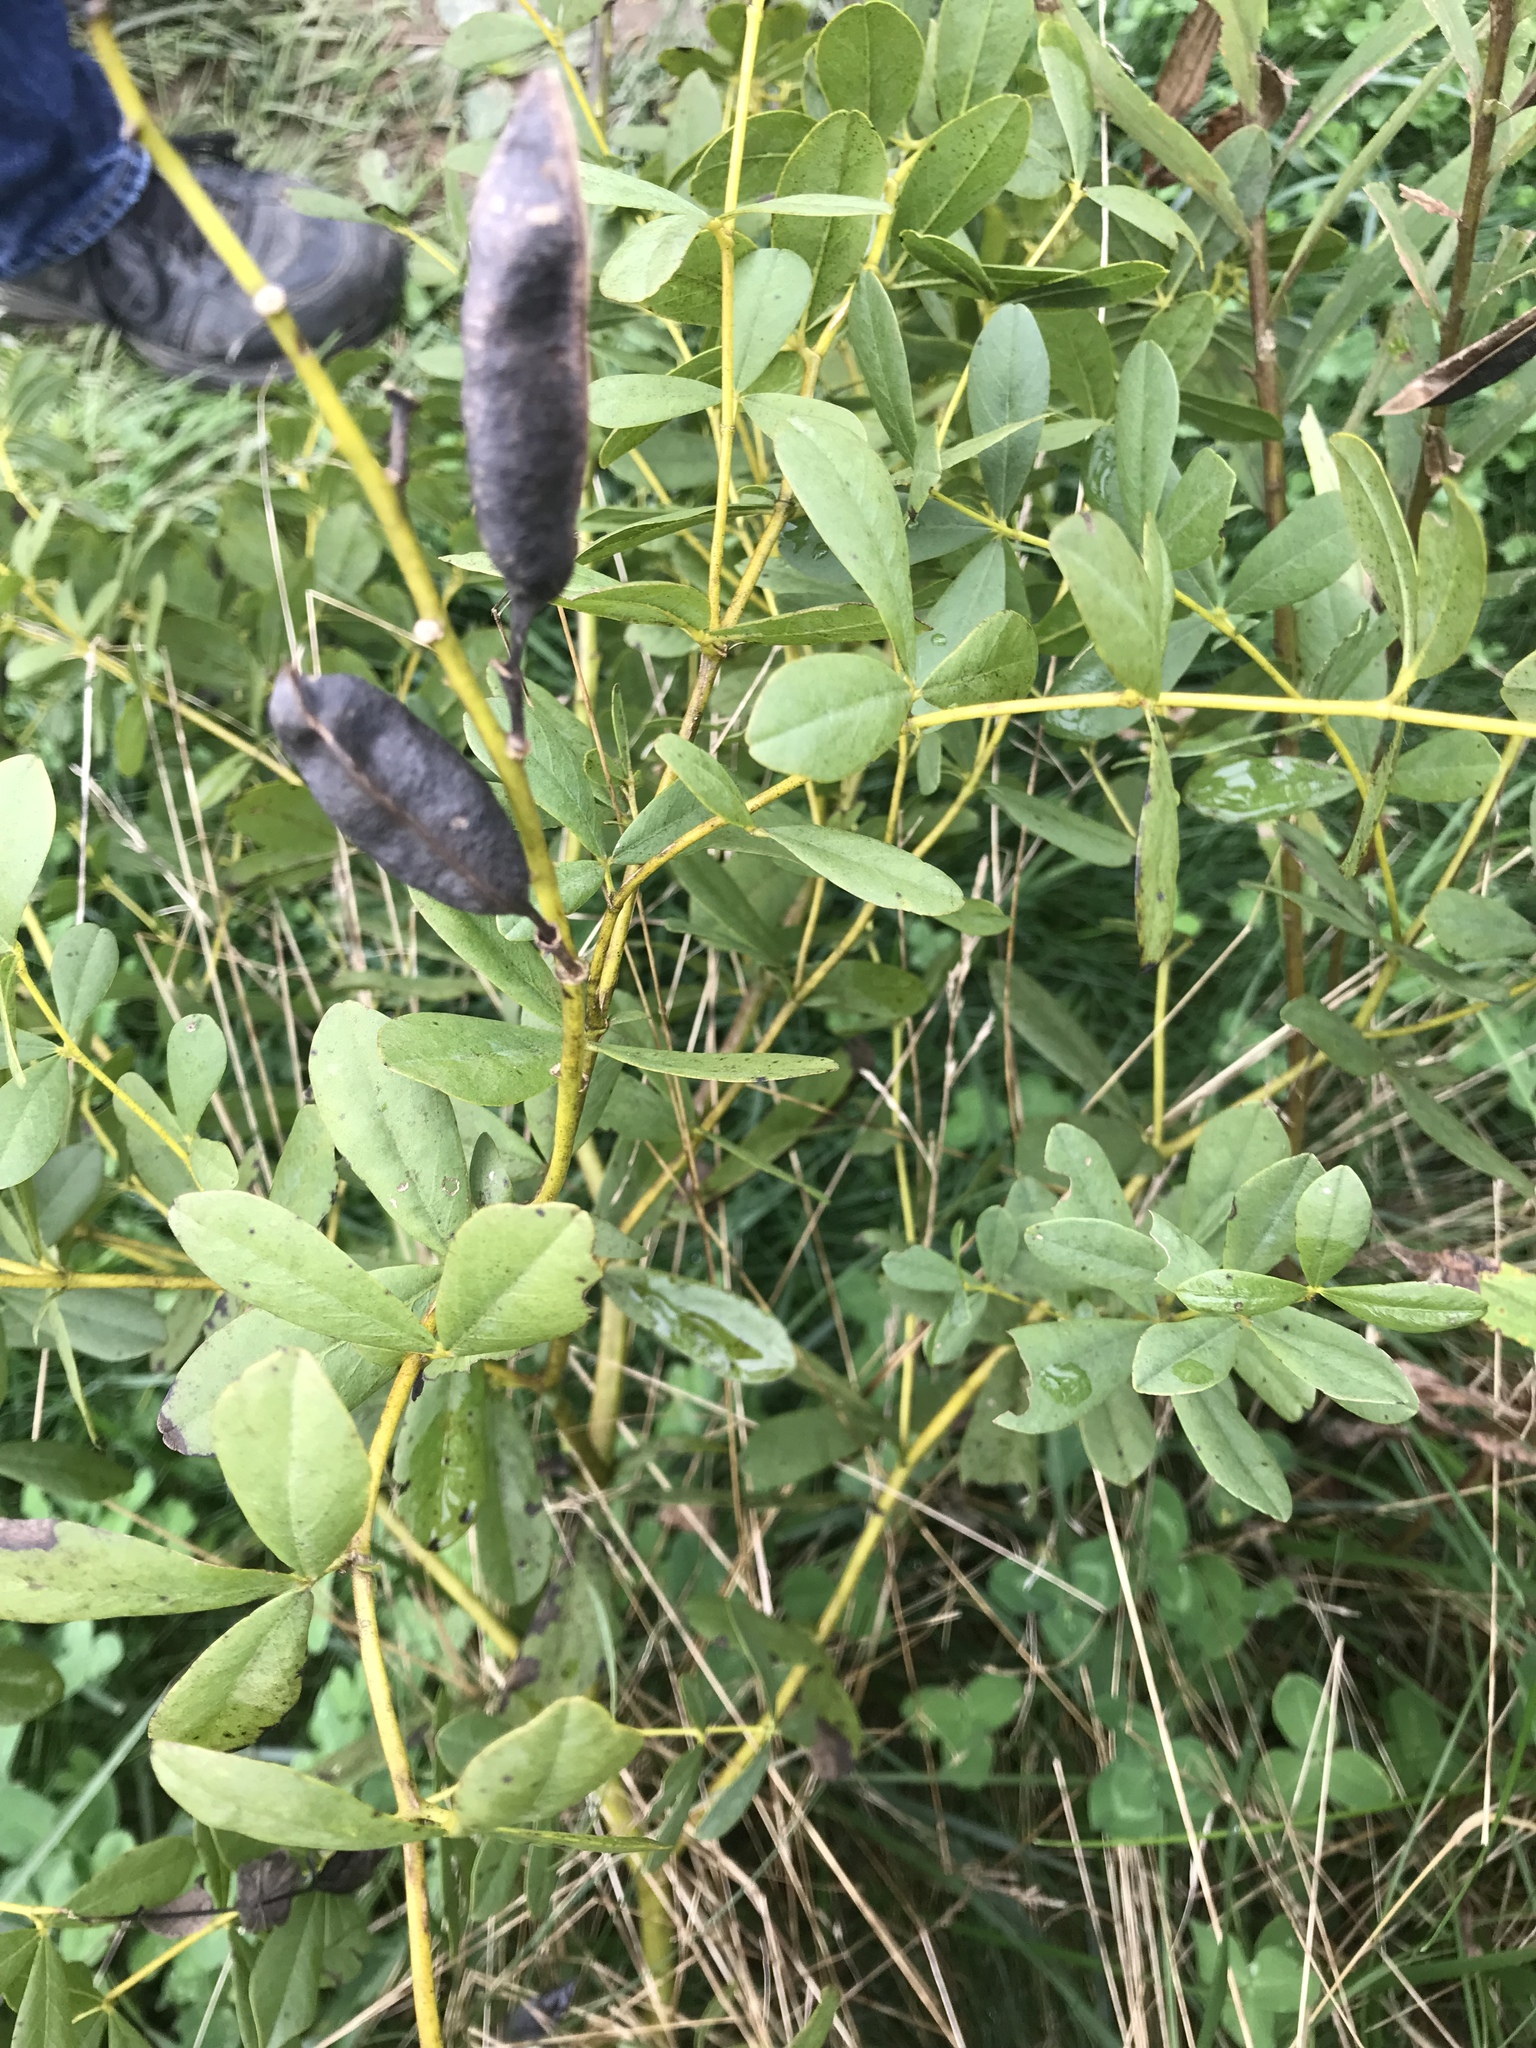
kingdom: Plantae
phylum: Tracheophyta
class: Magnoliopsida
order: Fabales
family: Fabaceae
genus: Baptisia
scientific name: Baptisia australis
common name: Blue false indigo
